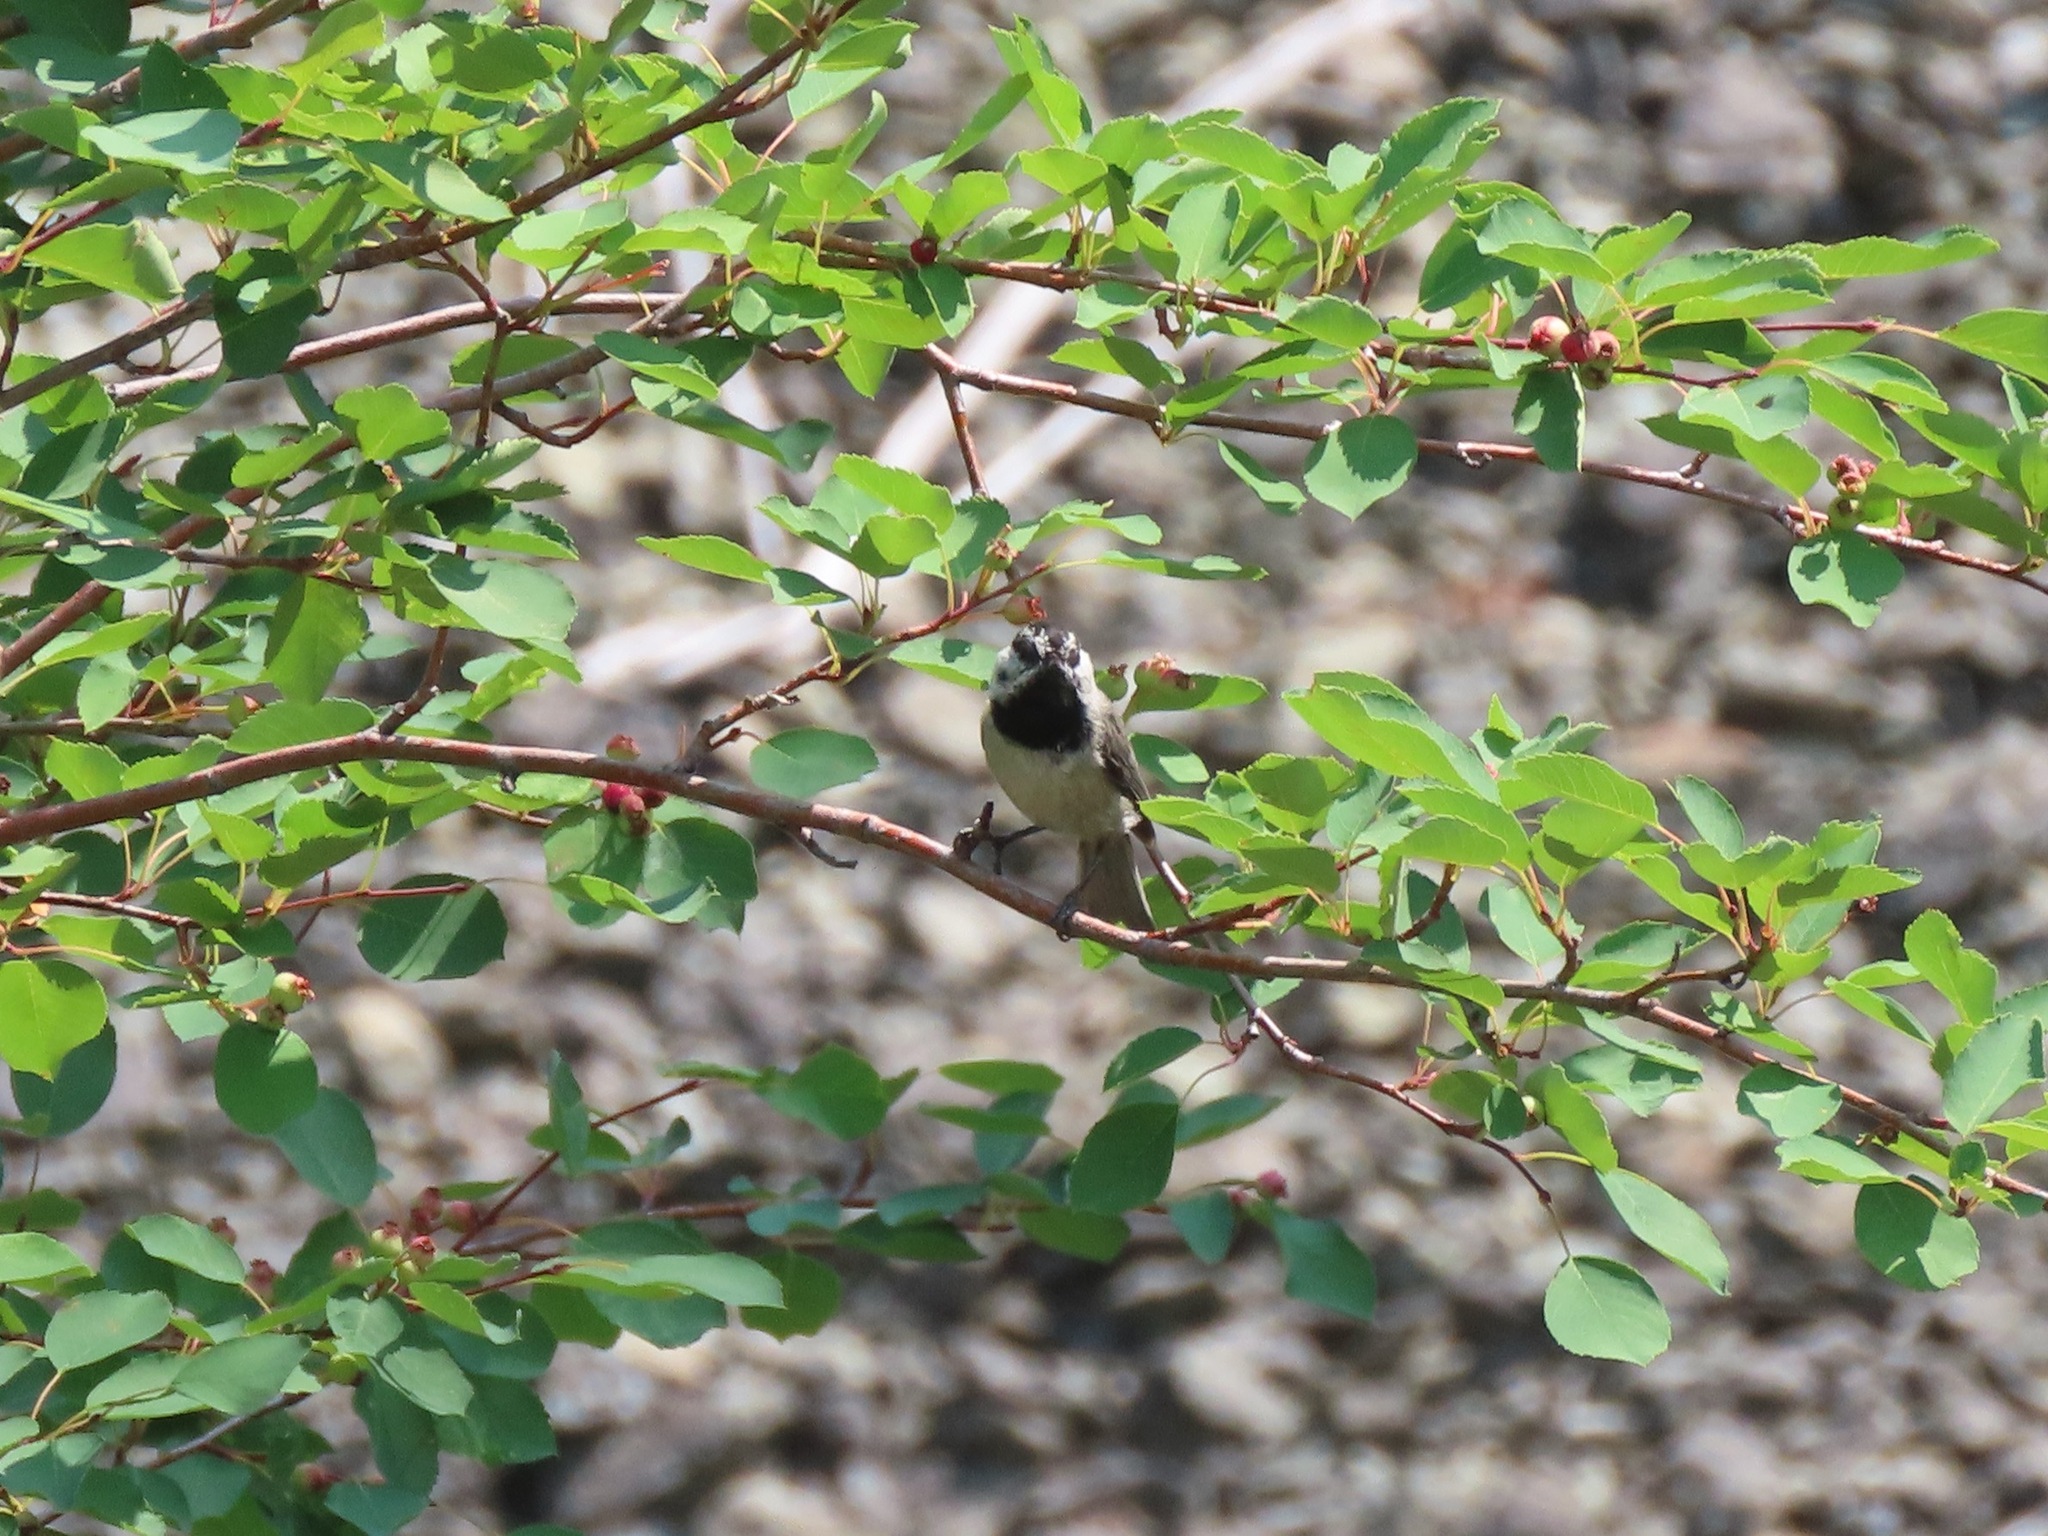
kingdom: Animalia
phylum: Chordata
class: Aves
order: Passeriformes
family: Paridae
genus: Poecile
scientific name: Poecile gambeli
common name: Mountain chickadee
